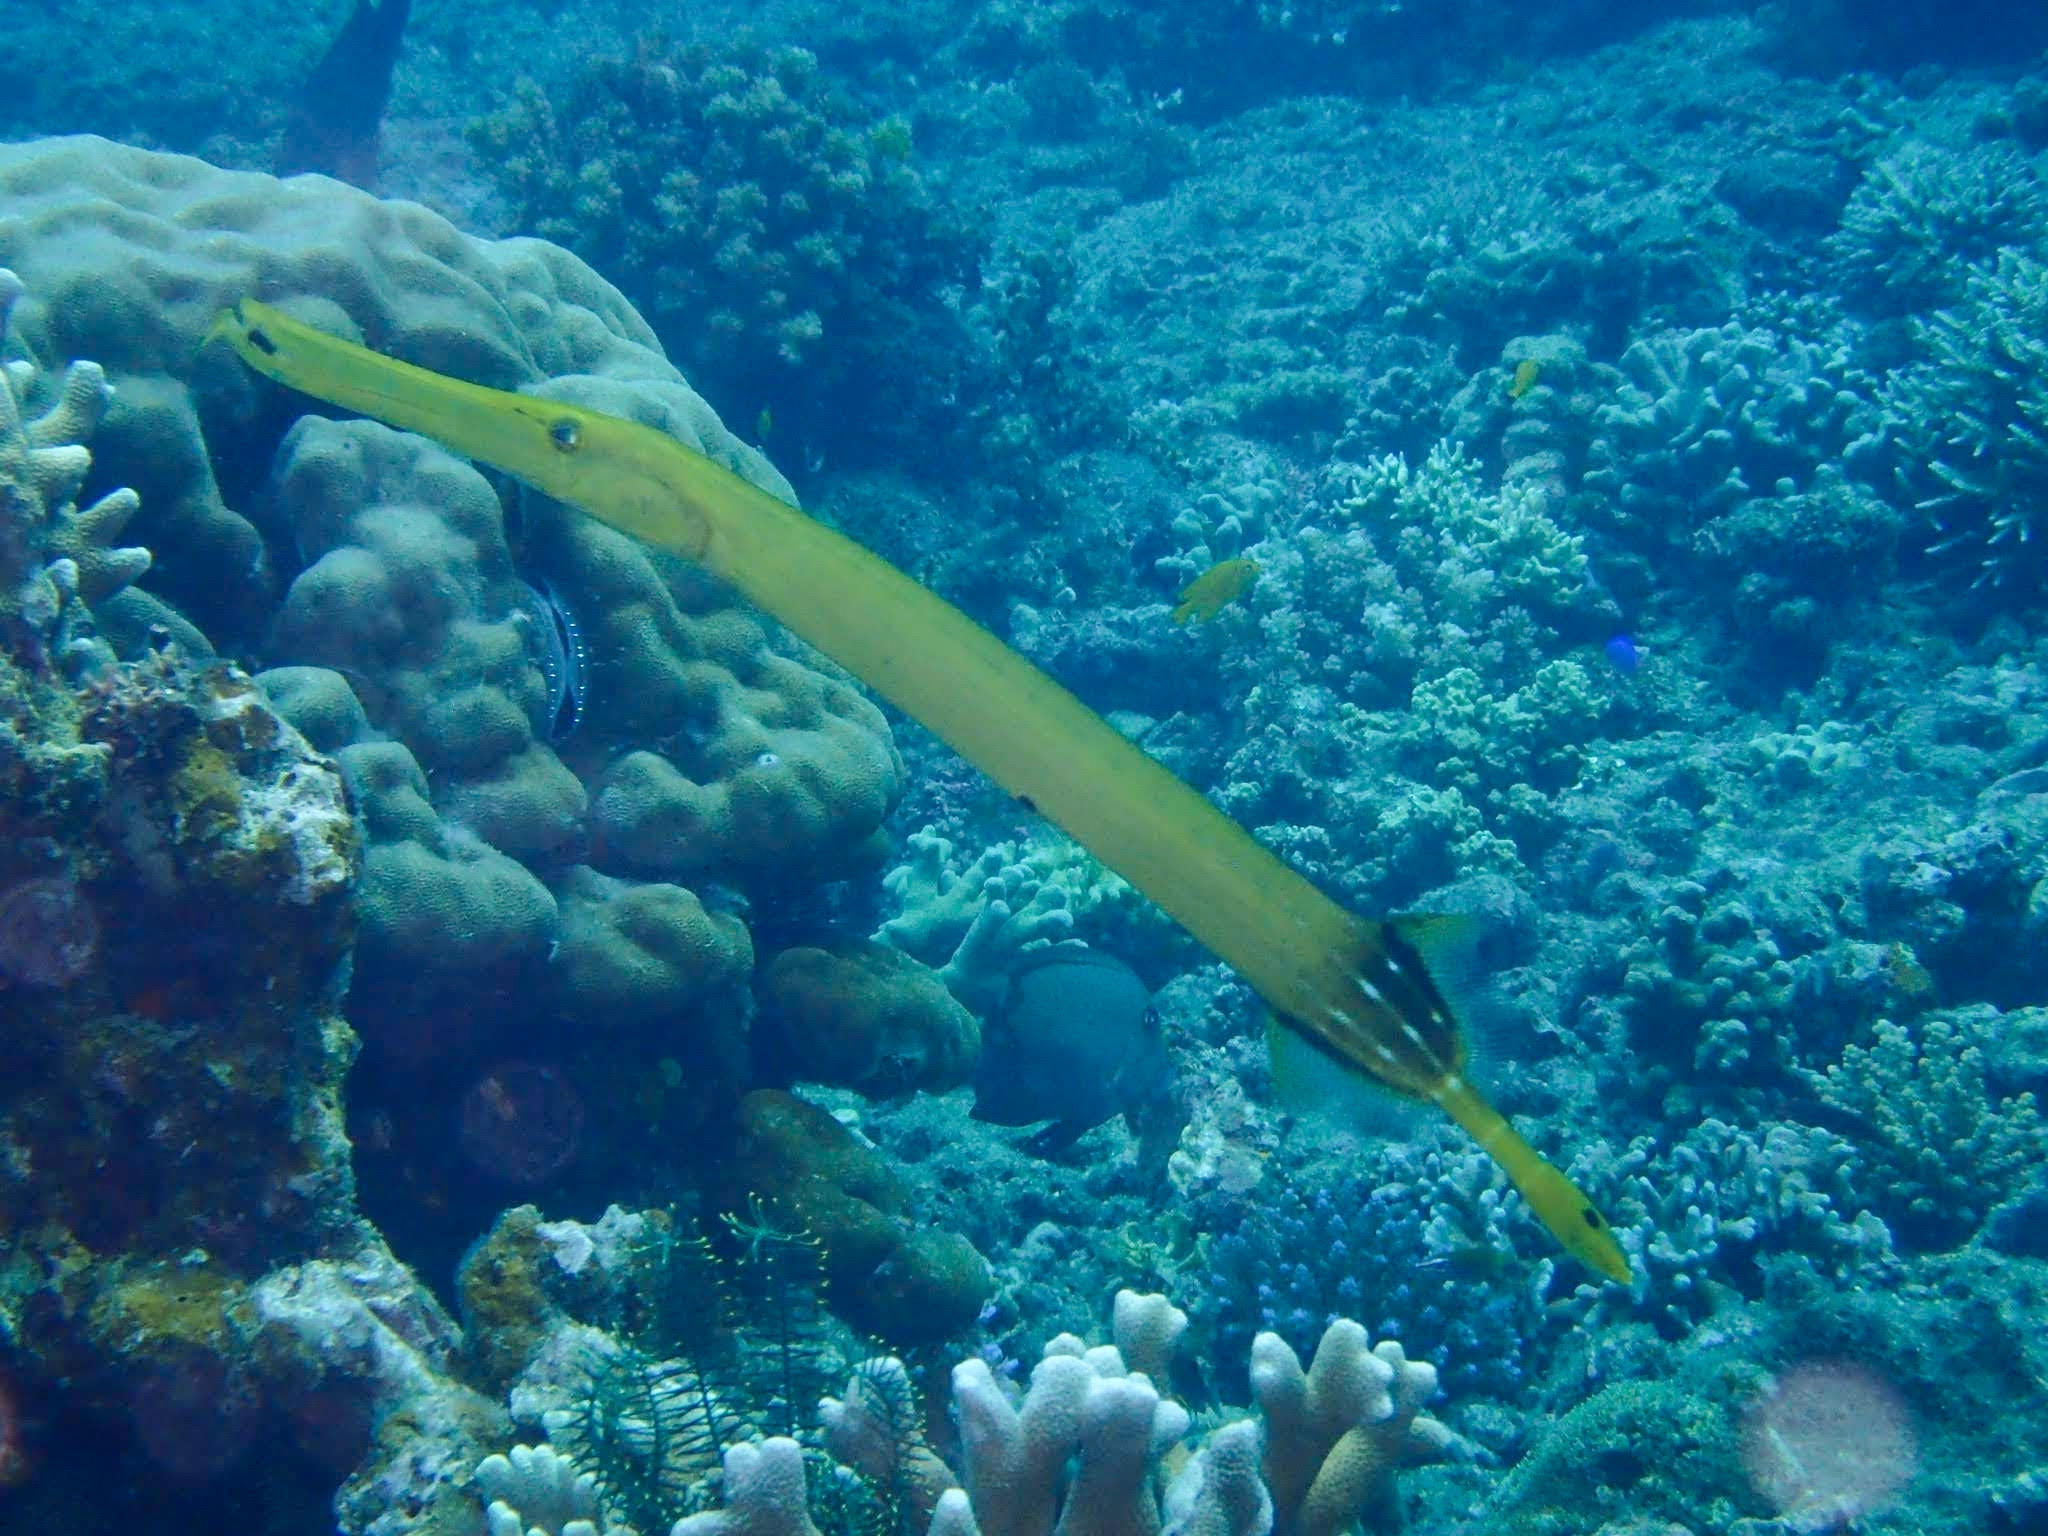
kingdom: Animalia
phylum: Chordata
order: Syngnathiformes
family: Aulostomidae
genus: Aulostomus
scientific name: Aulostomus chinensis
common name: Chinese trumpetfish
